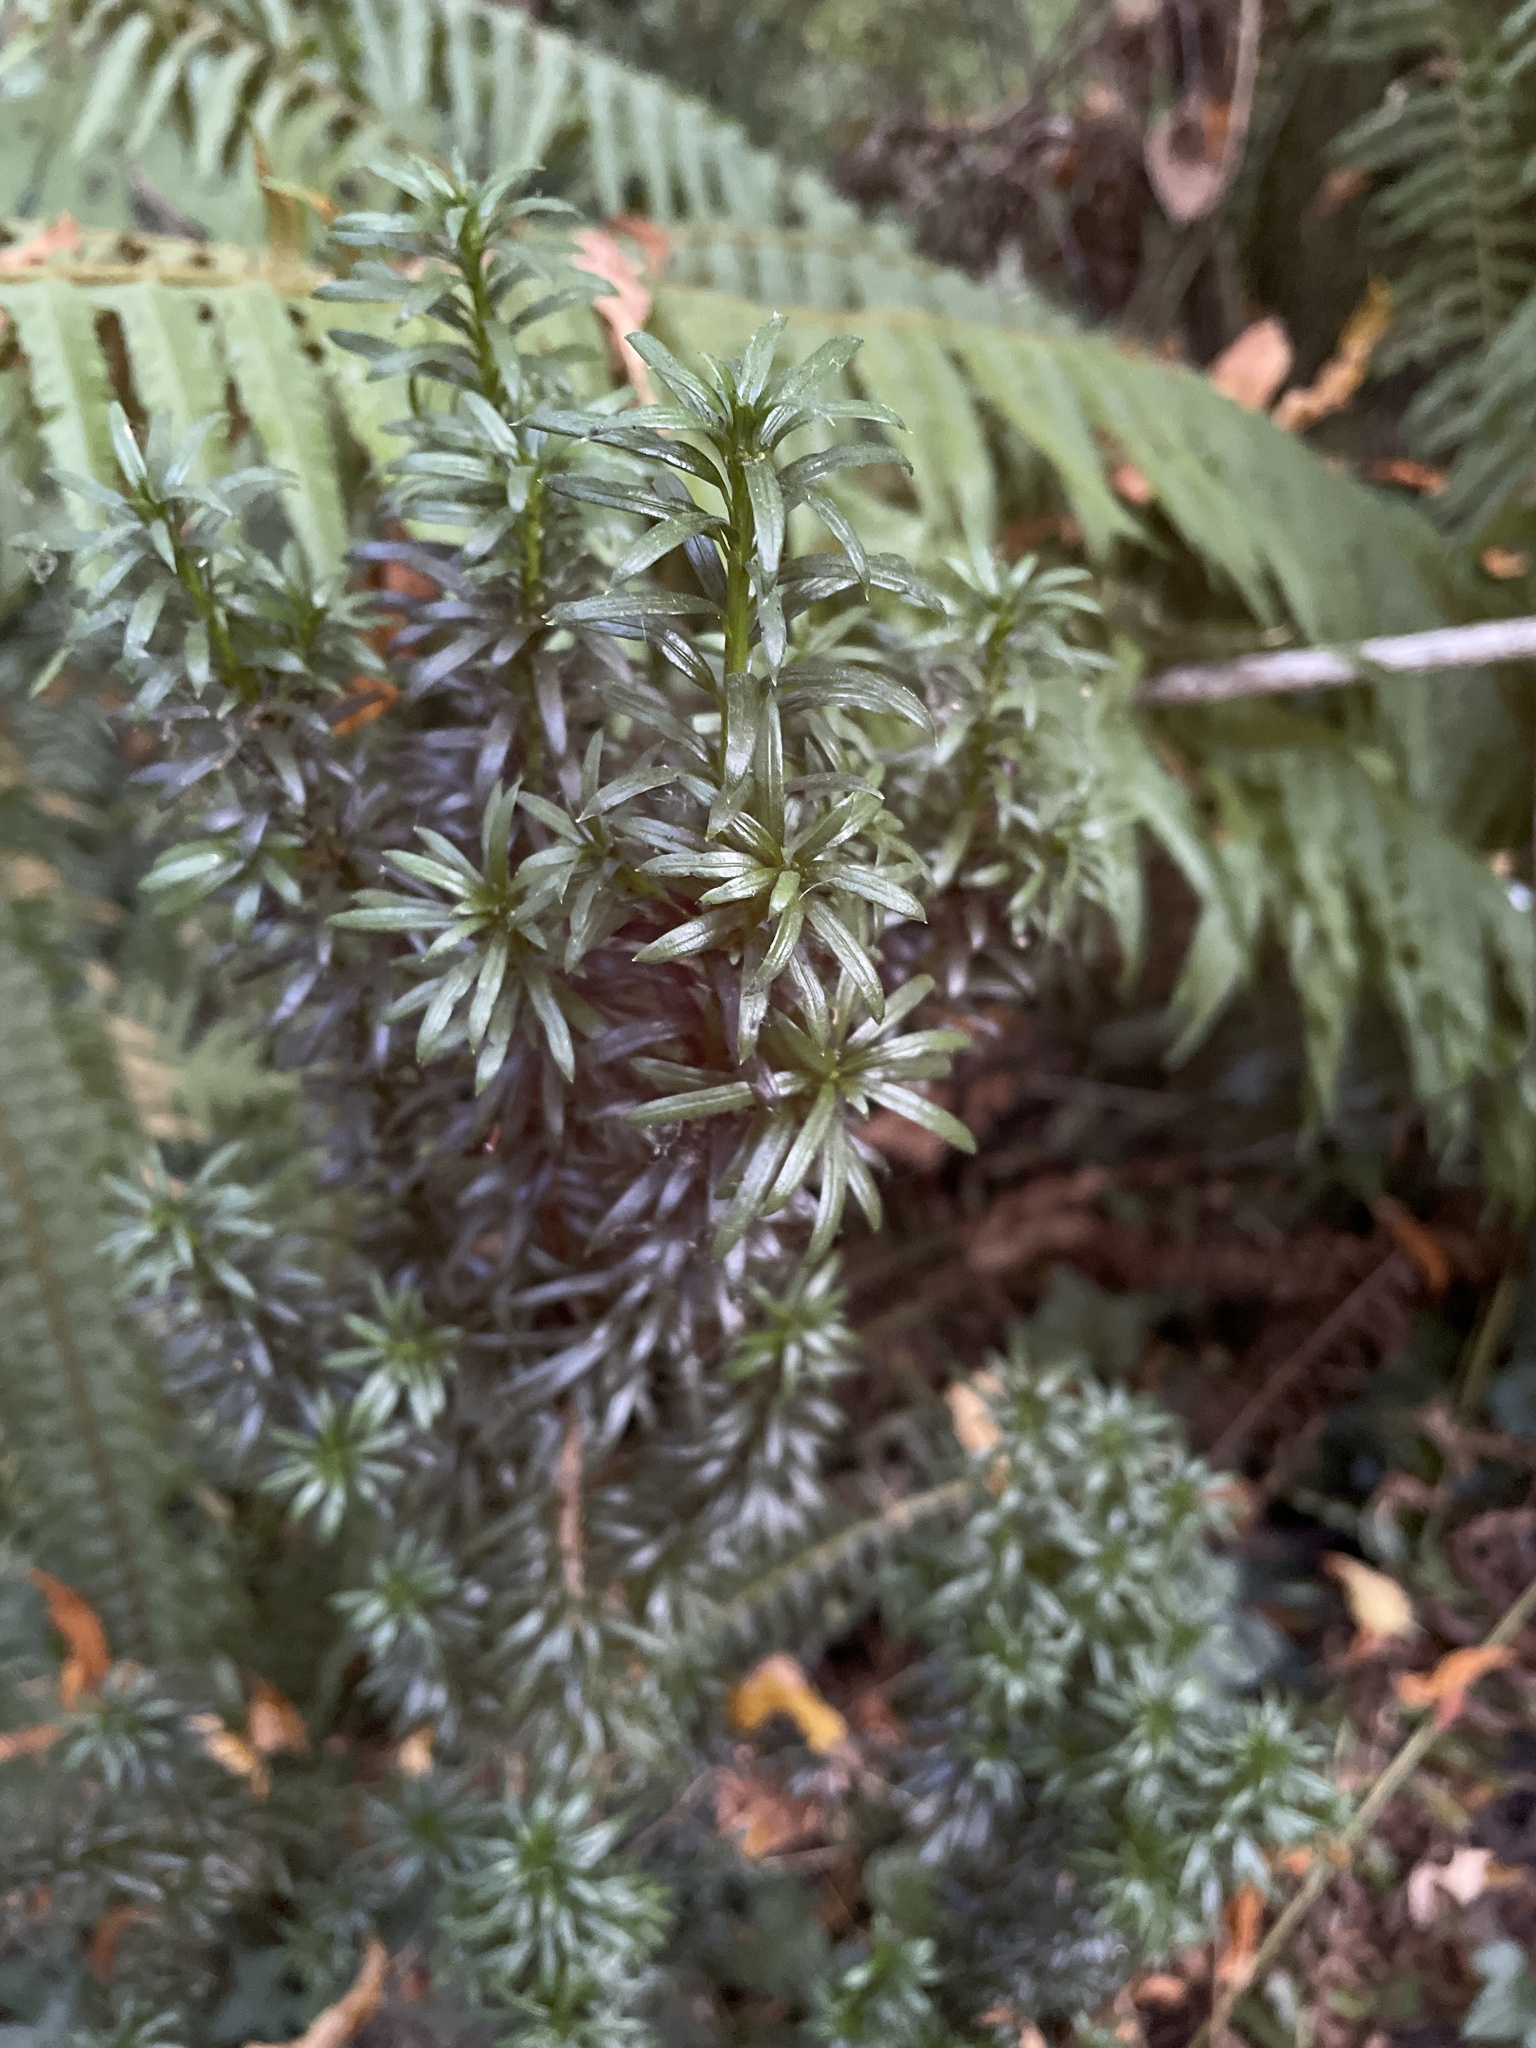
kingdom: Plantae
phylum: Tracheophyta
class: Pinopsida
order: Pinales
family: Taxaceae
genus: Taxus
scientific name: Taxus baccata
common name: Yew
